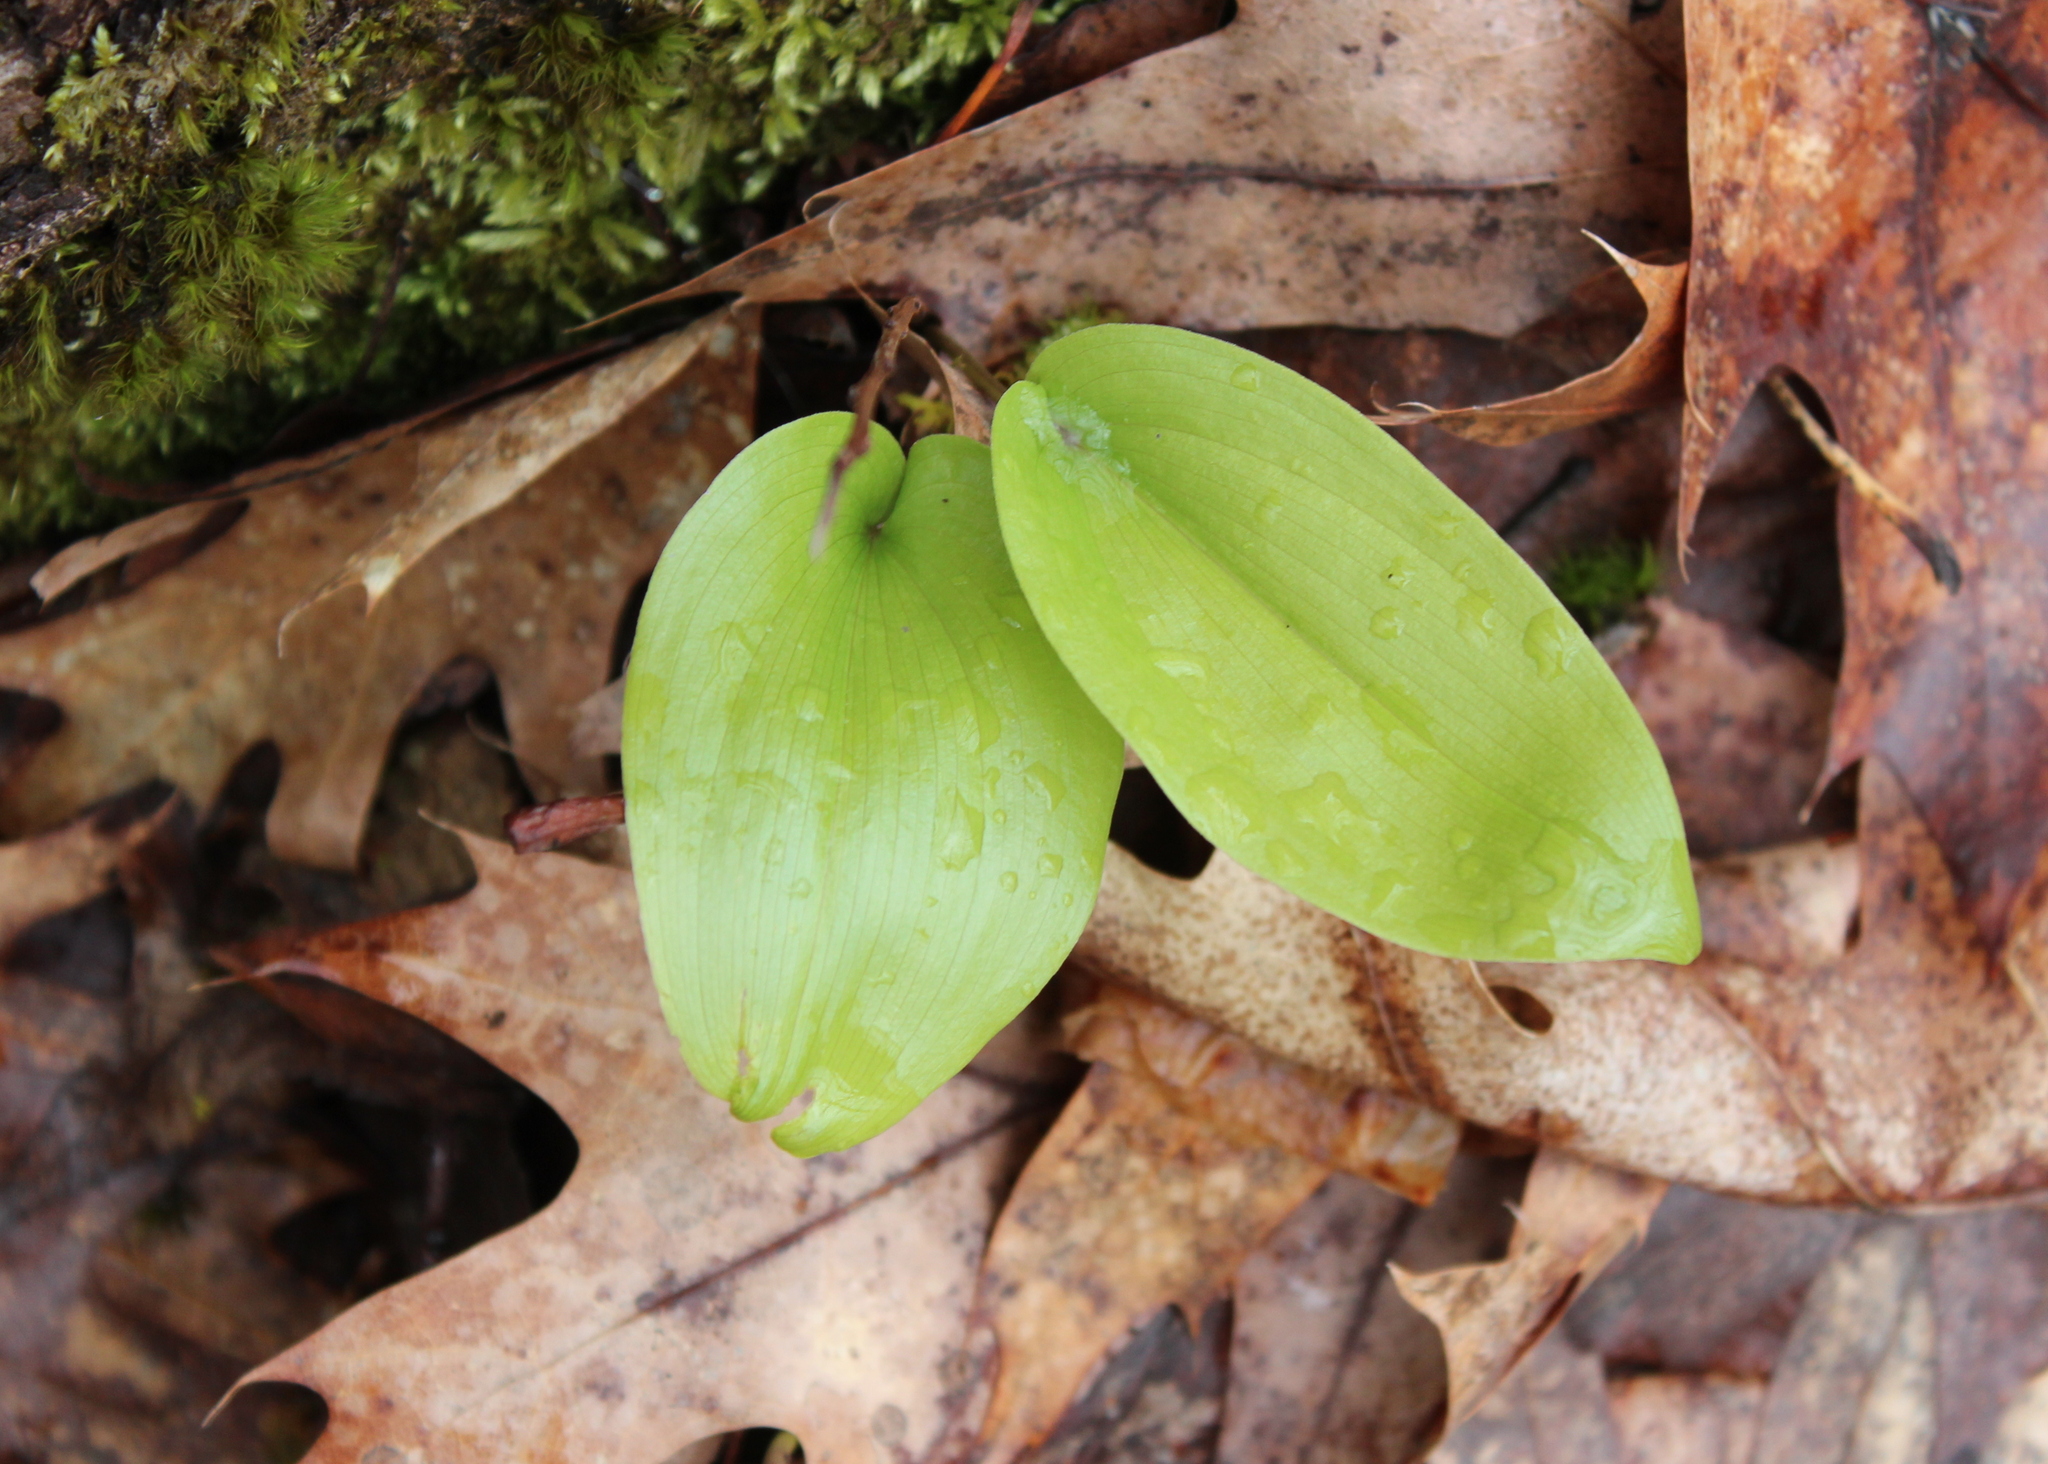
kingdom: Plantae
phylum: Tracheophyta
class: Liliopsida
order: Asparagales
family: Asparagaceae
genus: Maianthemum
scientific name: Maianthemum canadense
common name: False lily-of-the-valley
